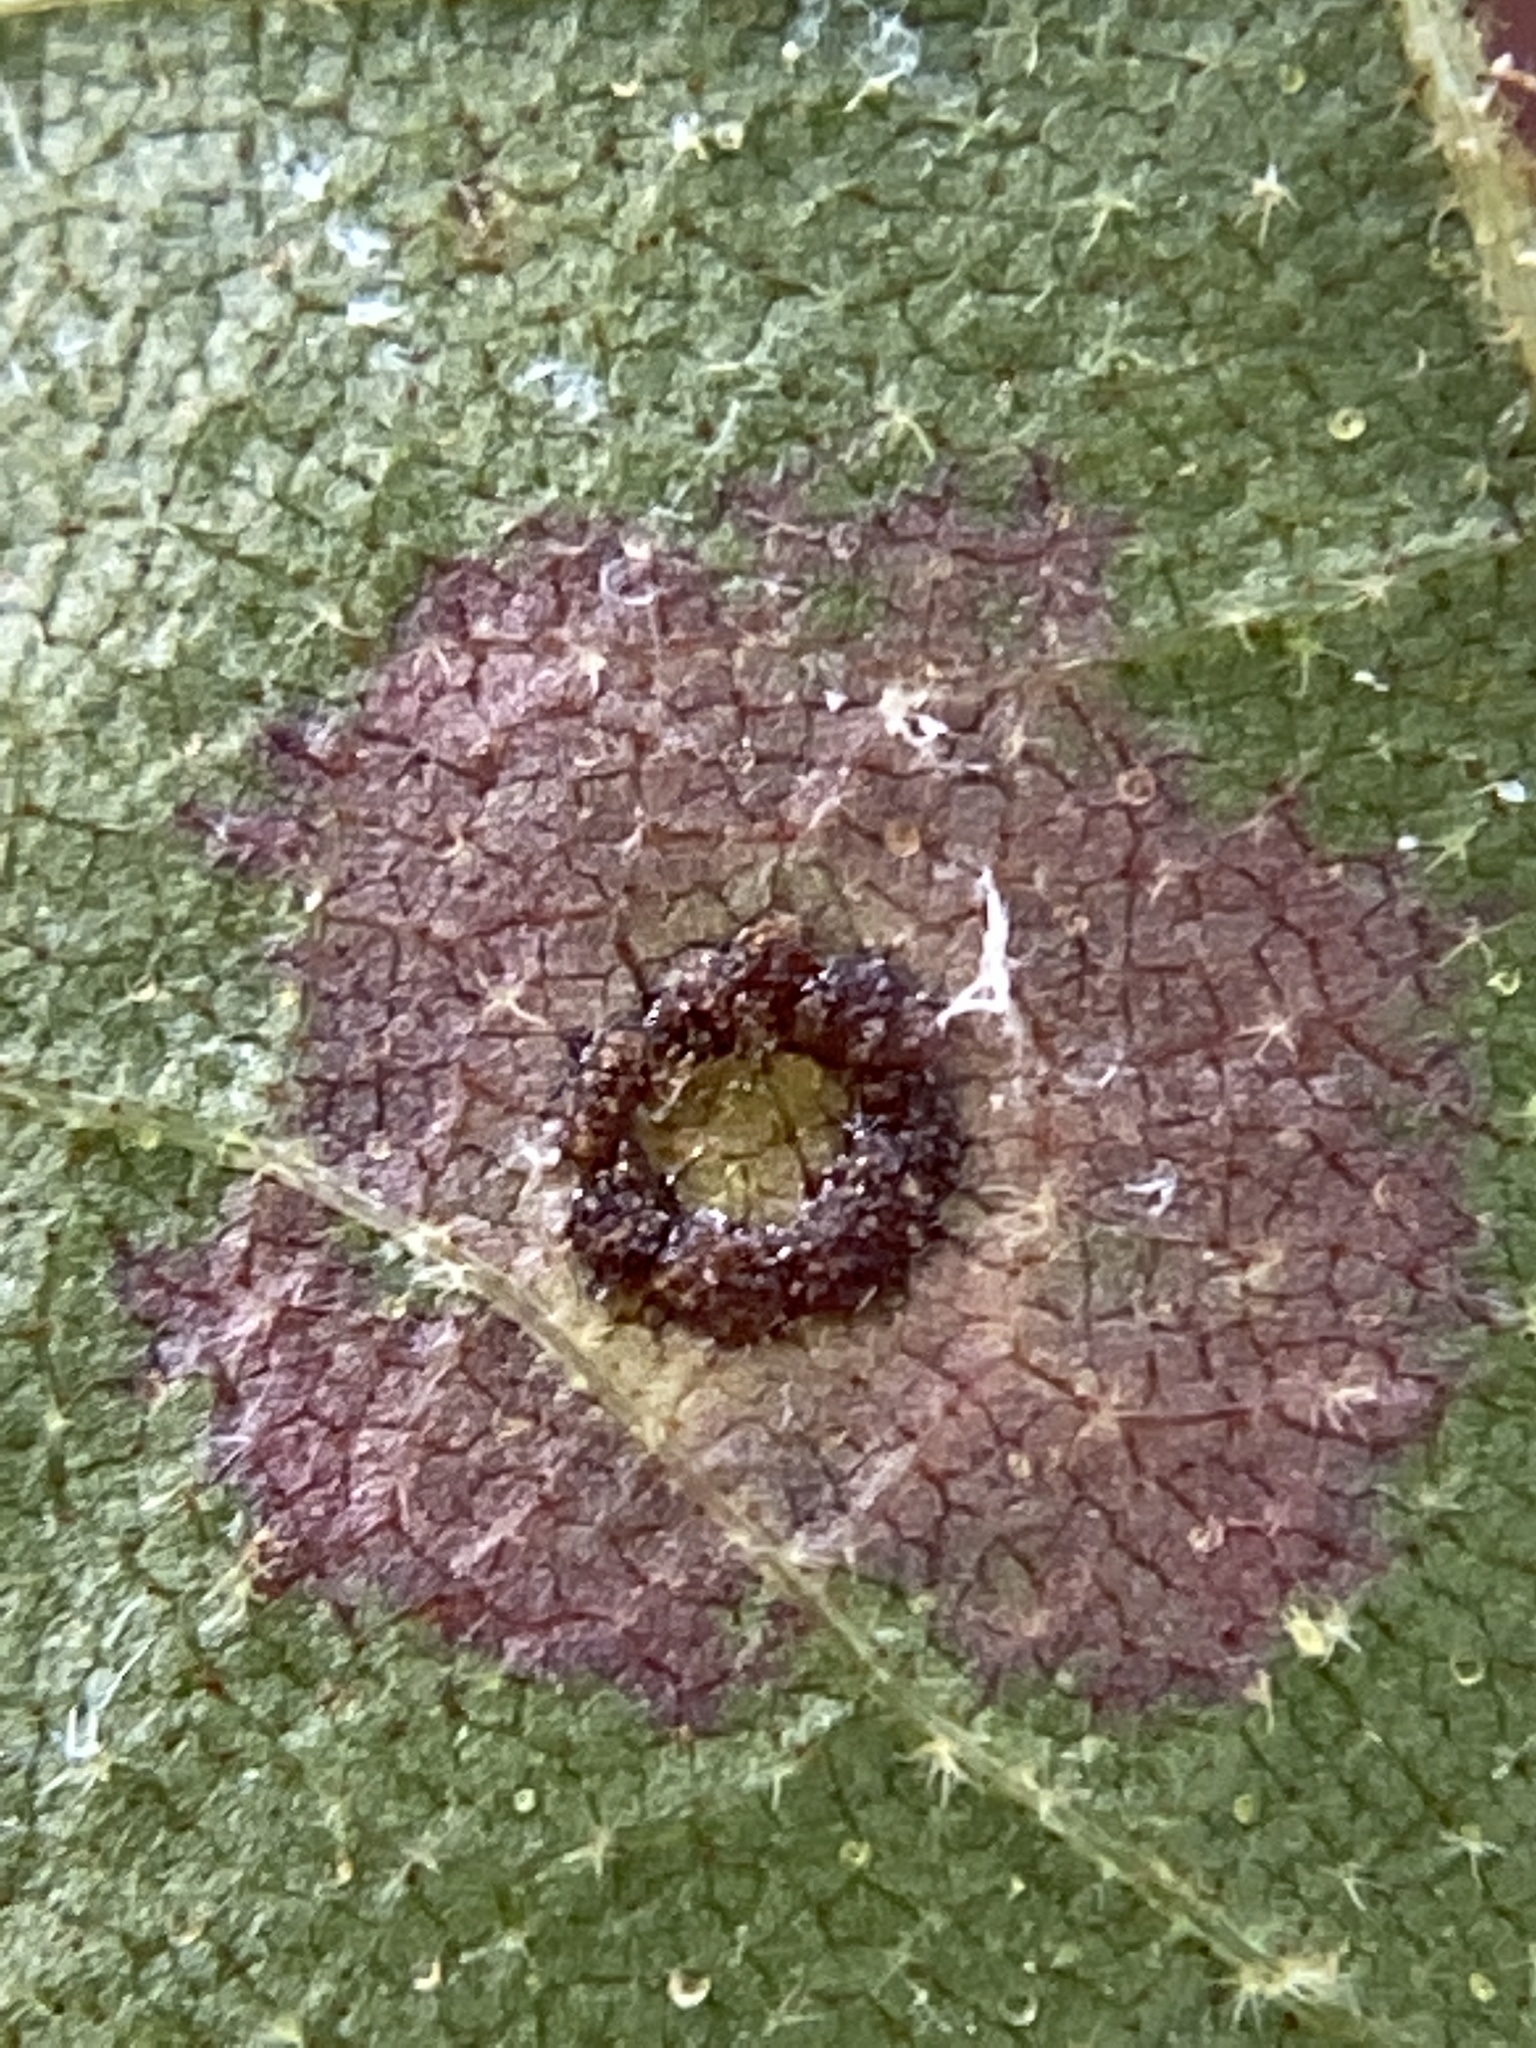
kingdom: Animalia
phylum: Arthropoda
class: Insecta
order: Diptera
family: Cecidomyiidae
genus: Gliaspilota
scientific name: Gliaspilota glutinosa
